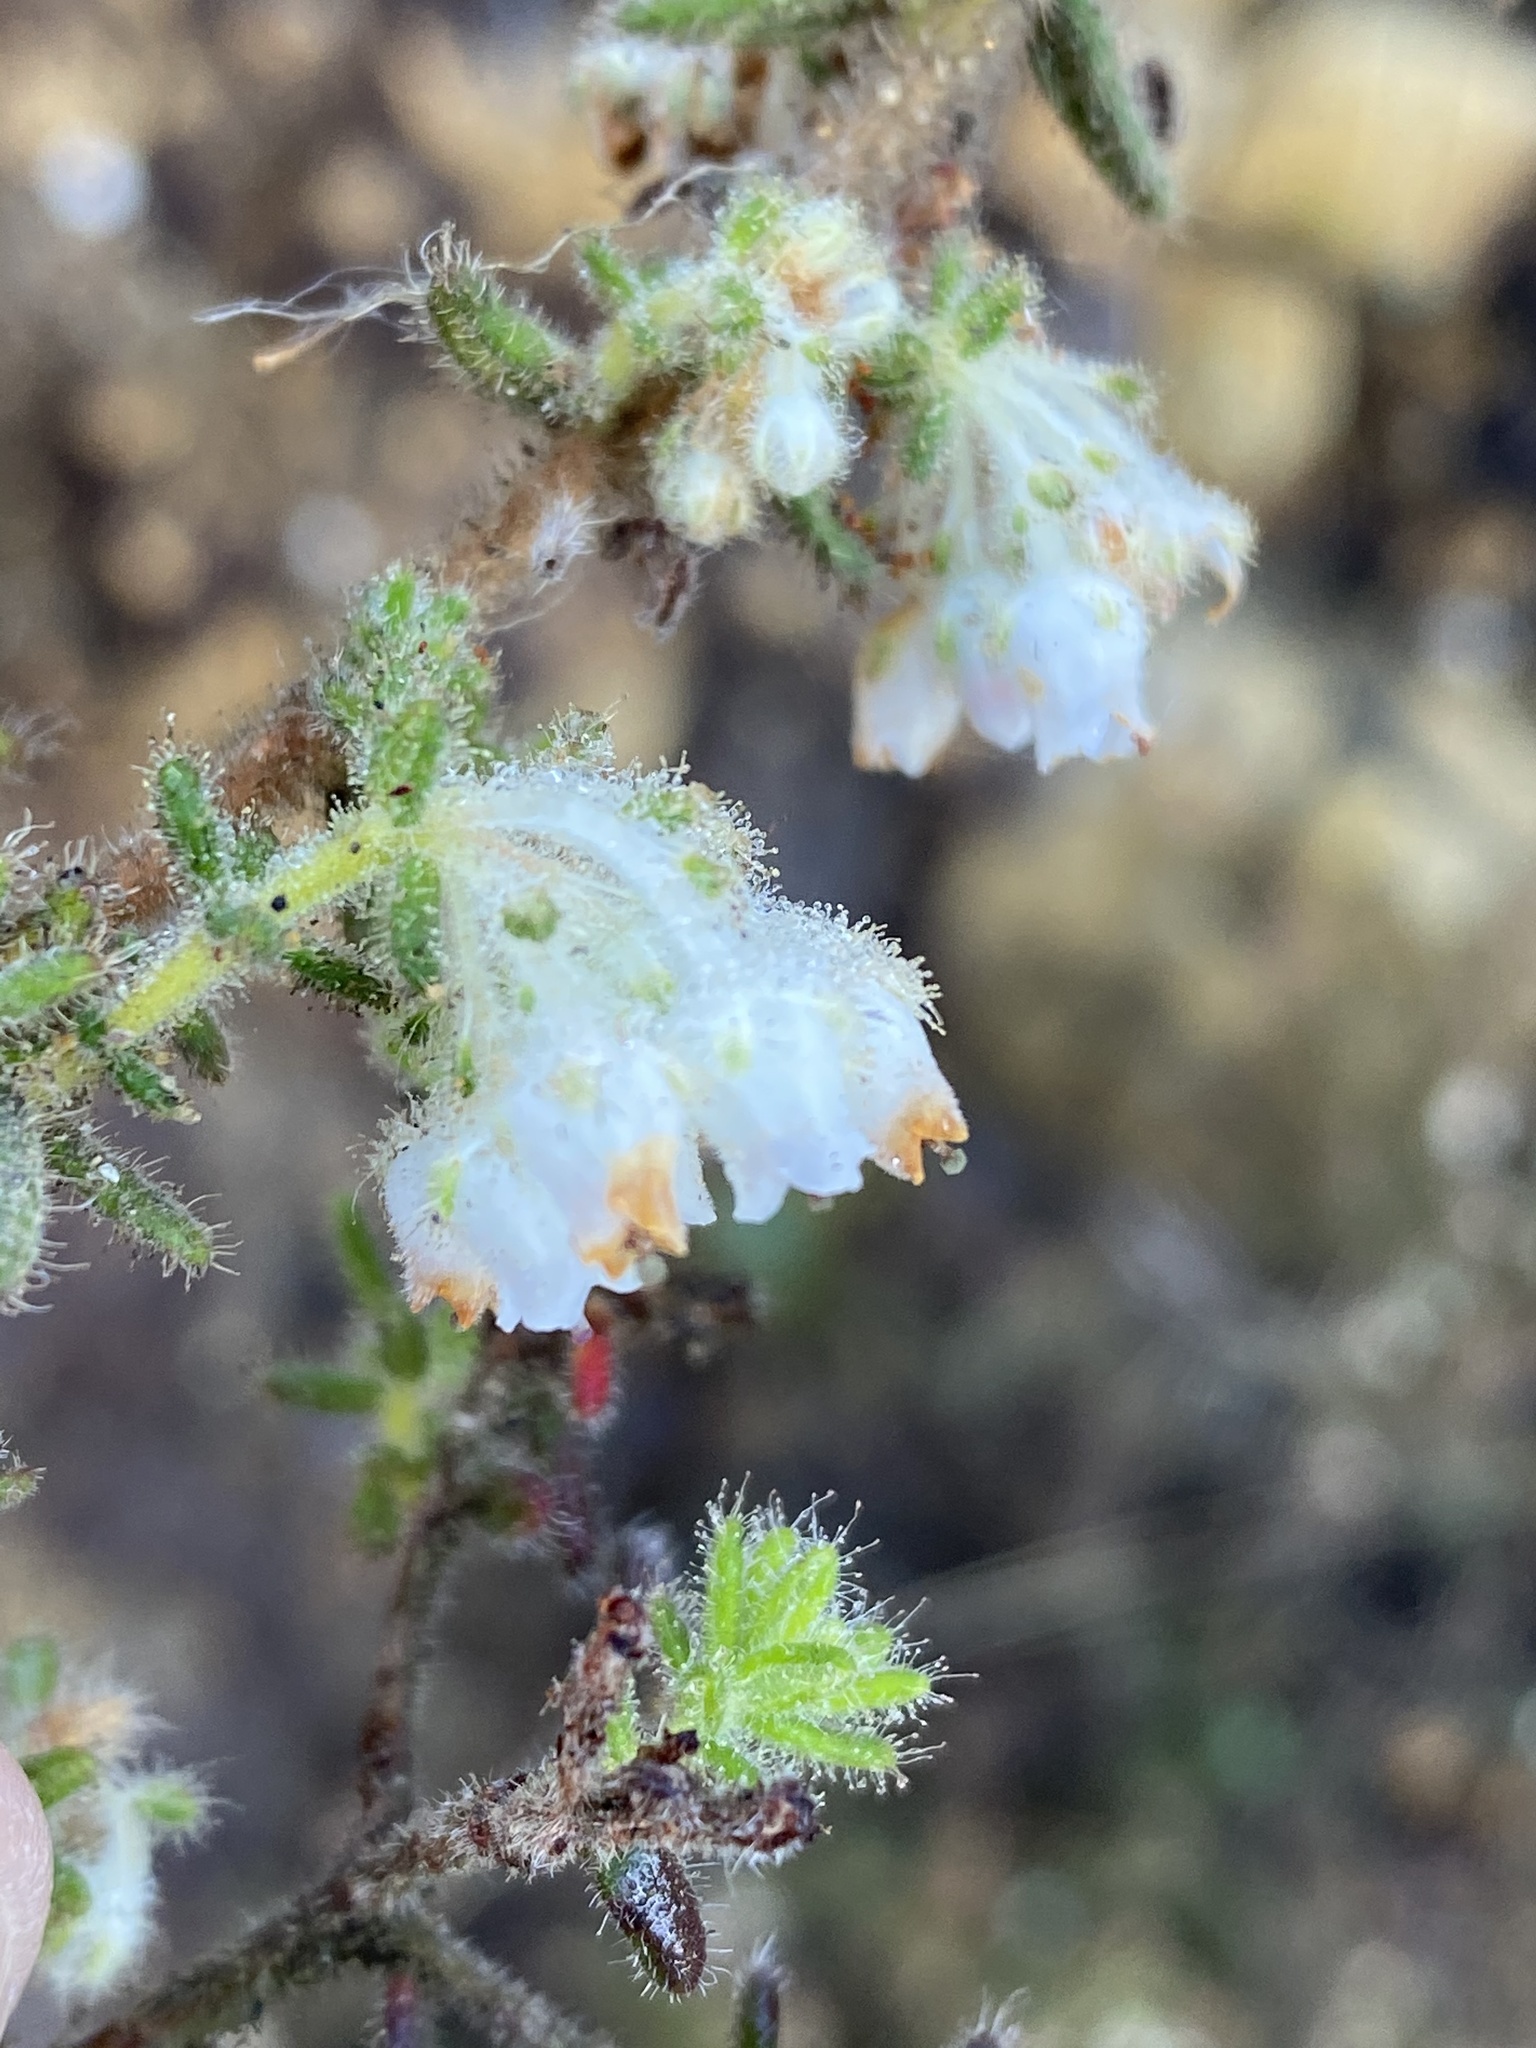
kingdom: Plantae
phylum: Tracheophyta
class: Magnoliopsida
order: Ericales
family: Ericaceae
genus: Erica
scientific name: Erica pannosa
